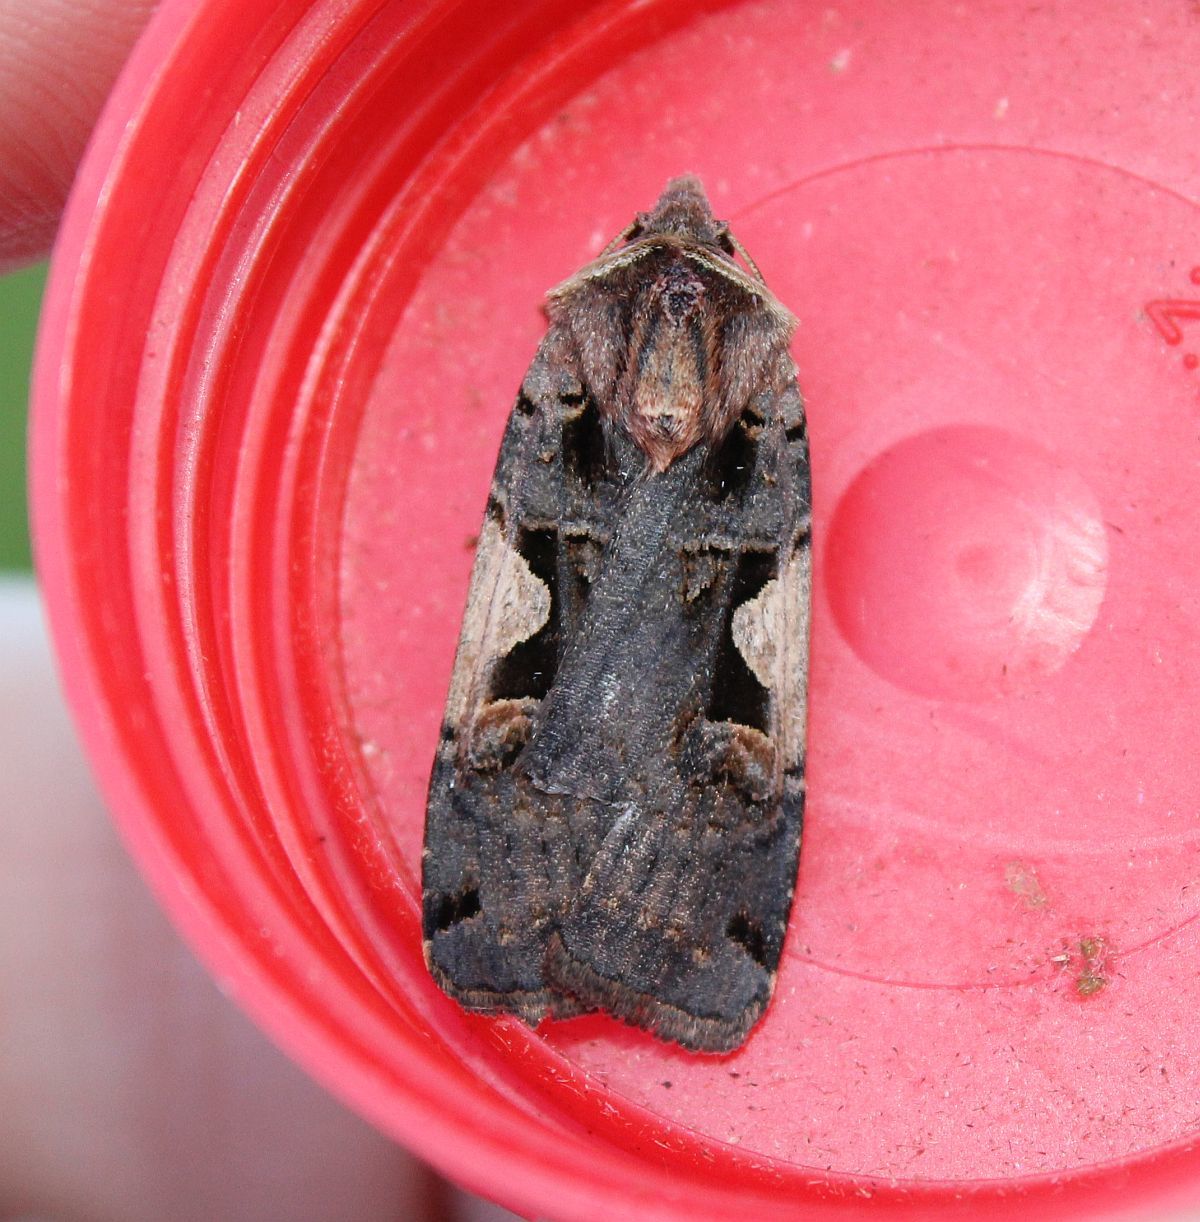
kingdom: Animalia
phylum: Arthropoda
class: Insecta
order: Lepidoptera
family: Noctuidae
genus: Xestia
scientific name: Xestia c-nigrum
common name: Setaceous hebrew character
